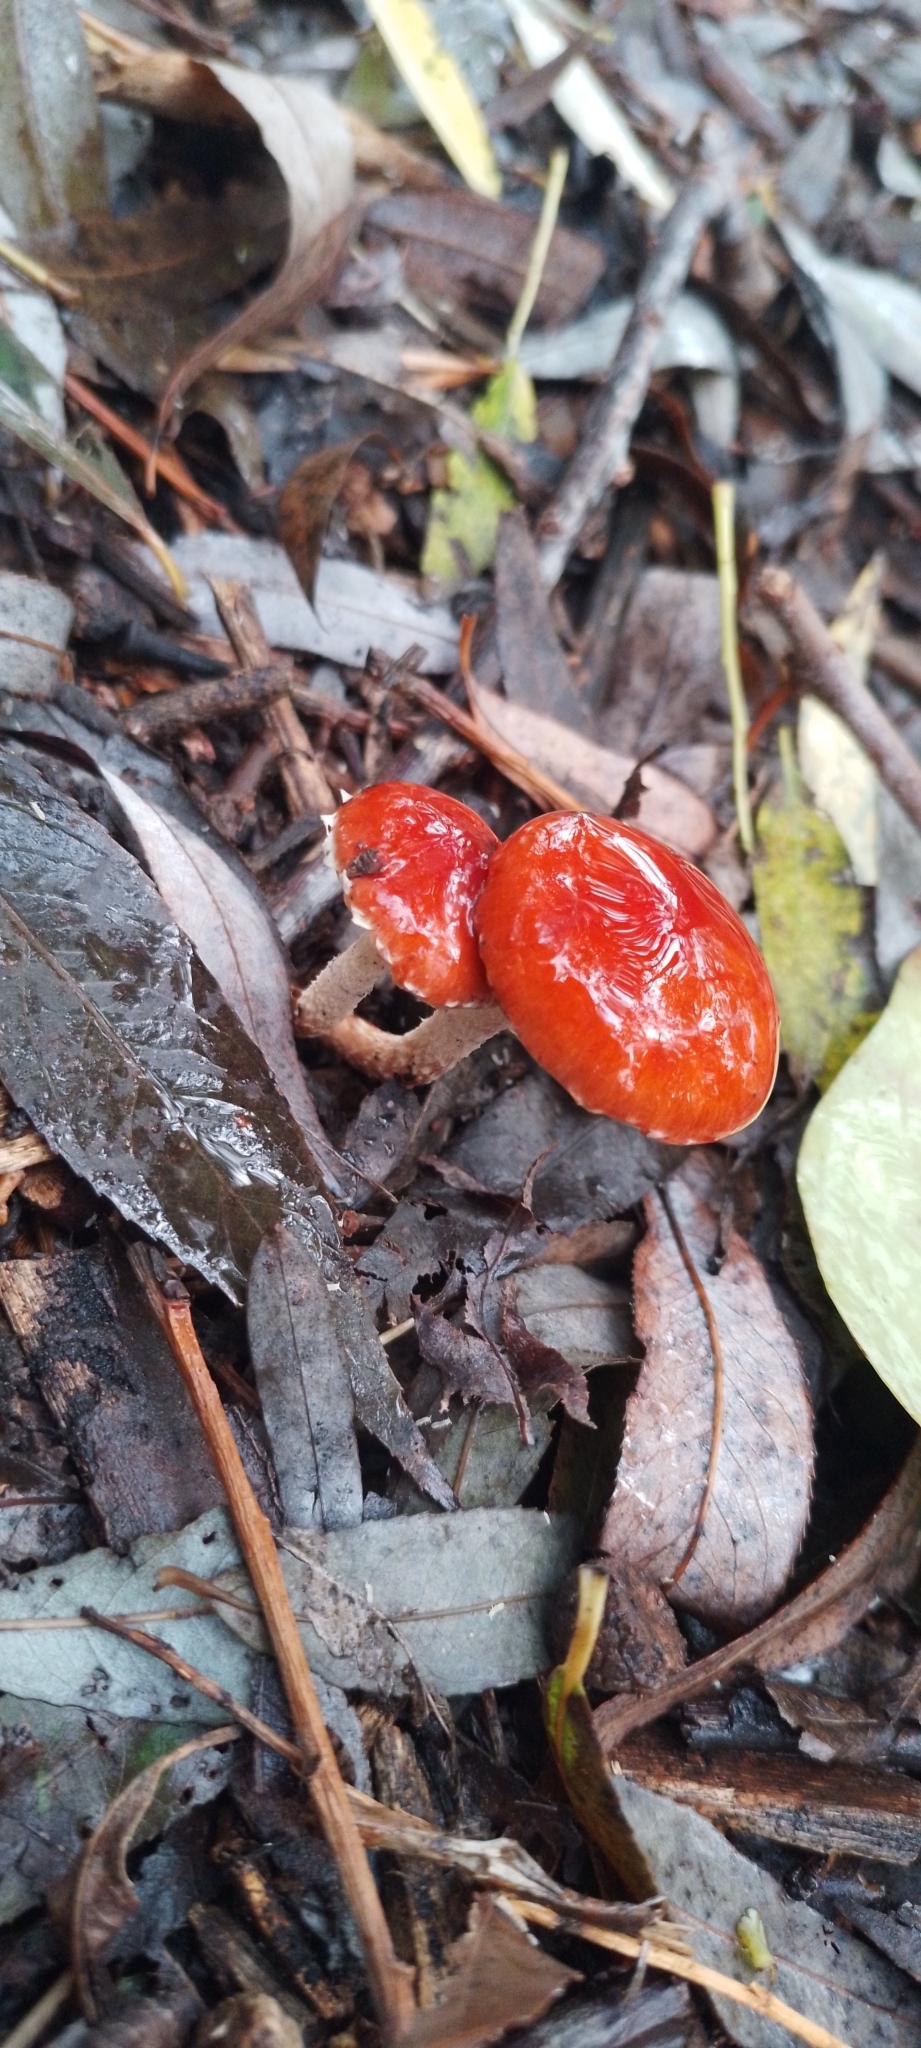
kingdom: Fungi
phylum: Basidiomycota
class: Agaricomycetes
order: Agaricales
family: Strophariaceae
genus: Leratiomyces
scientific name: Leratiomyces ceres
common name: Redlead roundhead
